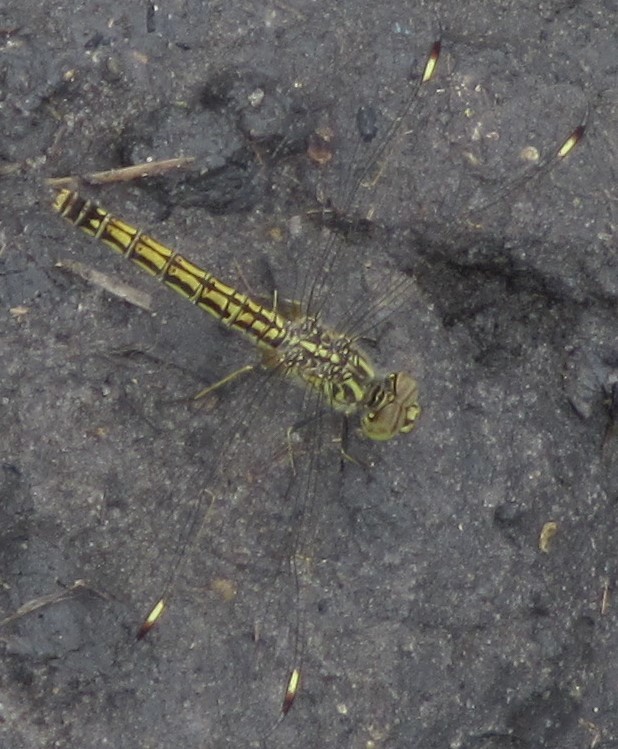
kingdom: Animalia
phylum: Arthropoda
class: Insecta
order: Odonata
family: Libellulidae
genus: Brachythemis
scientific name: Brachythemis leucosticta
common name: Banded groundling
